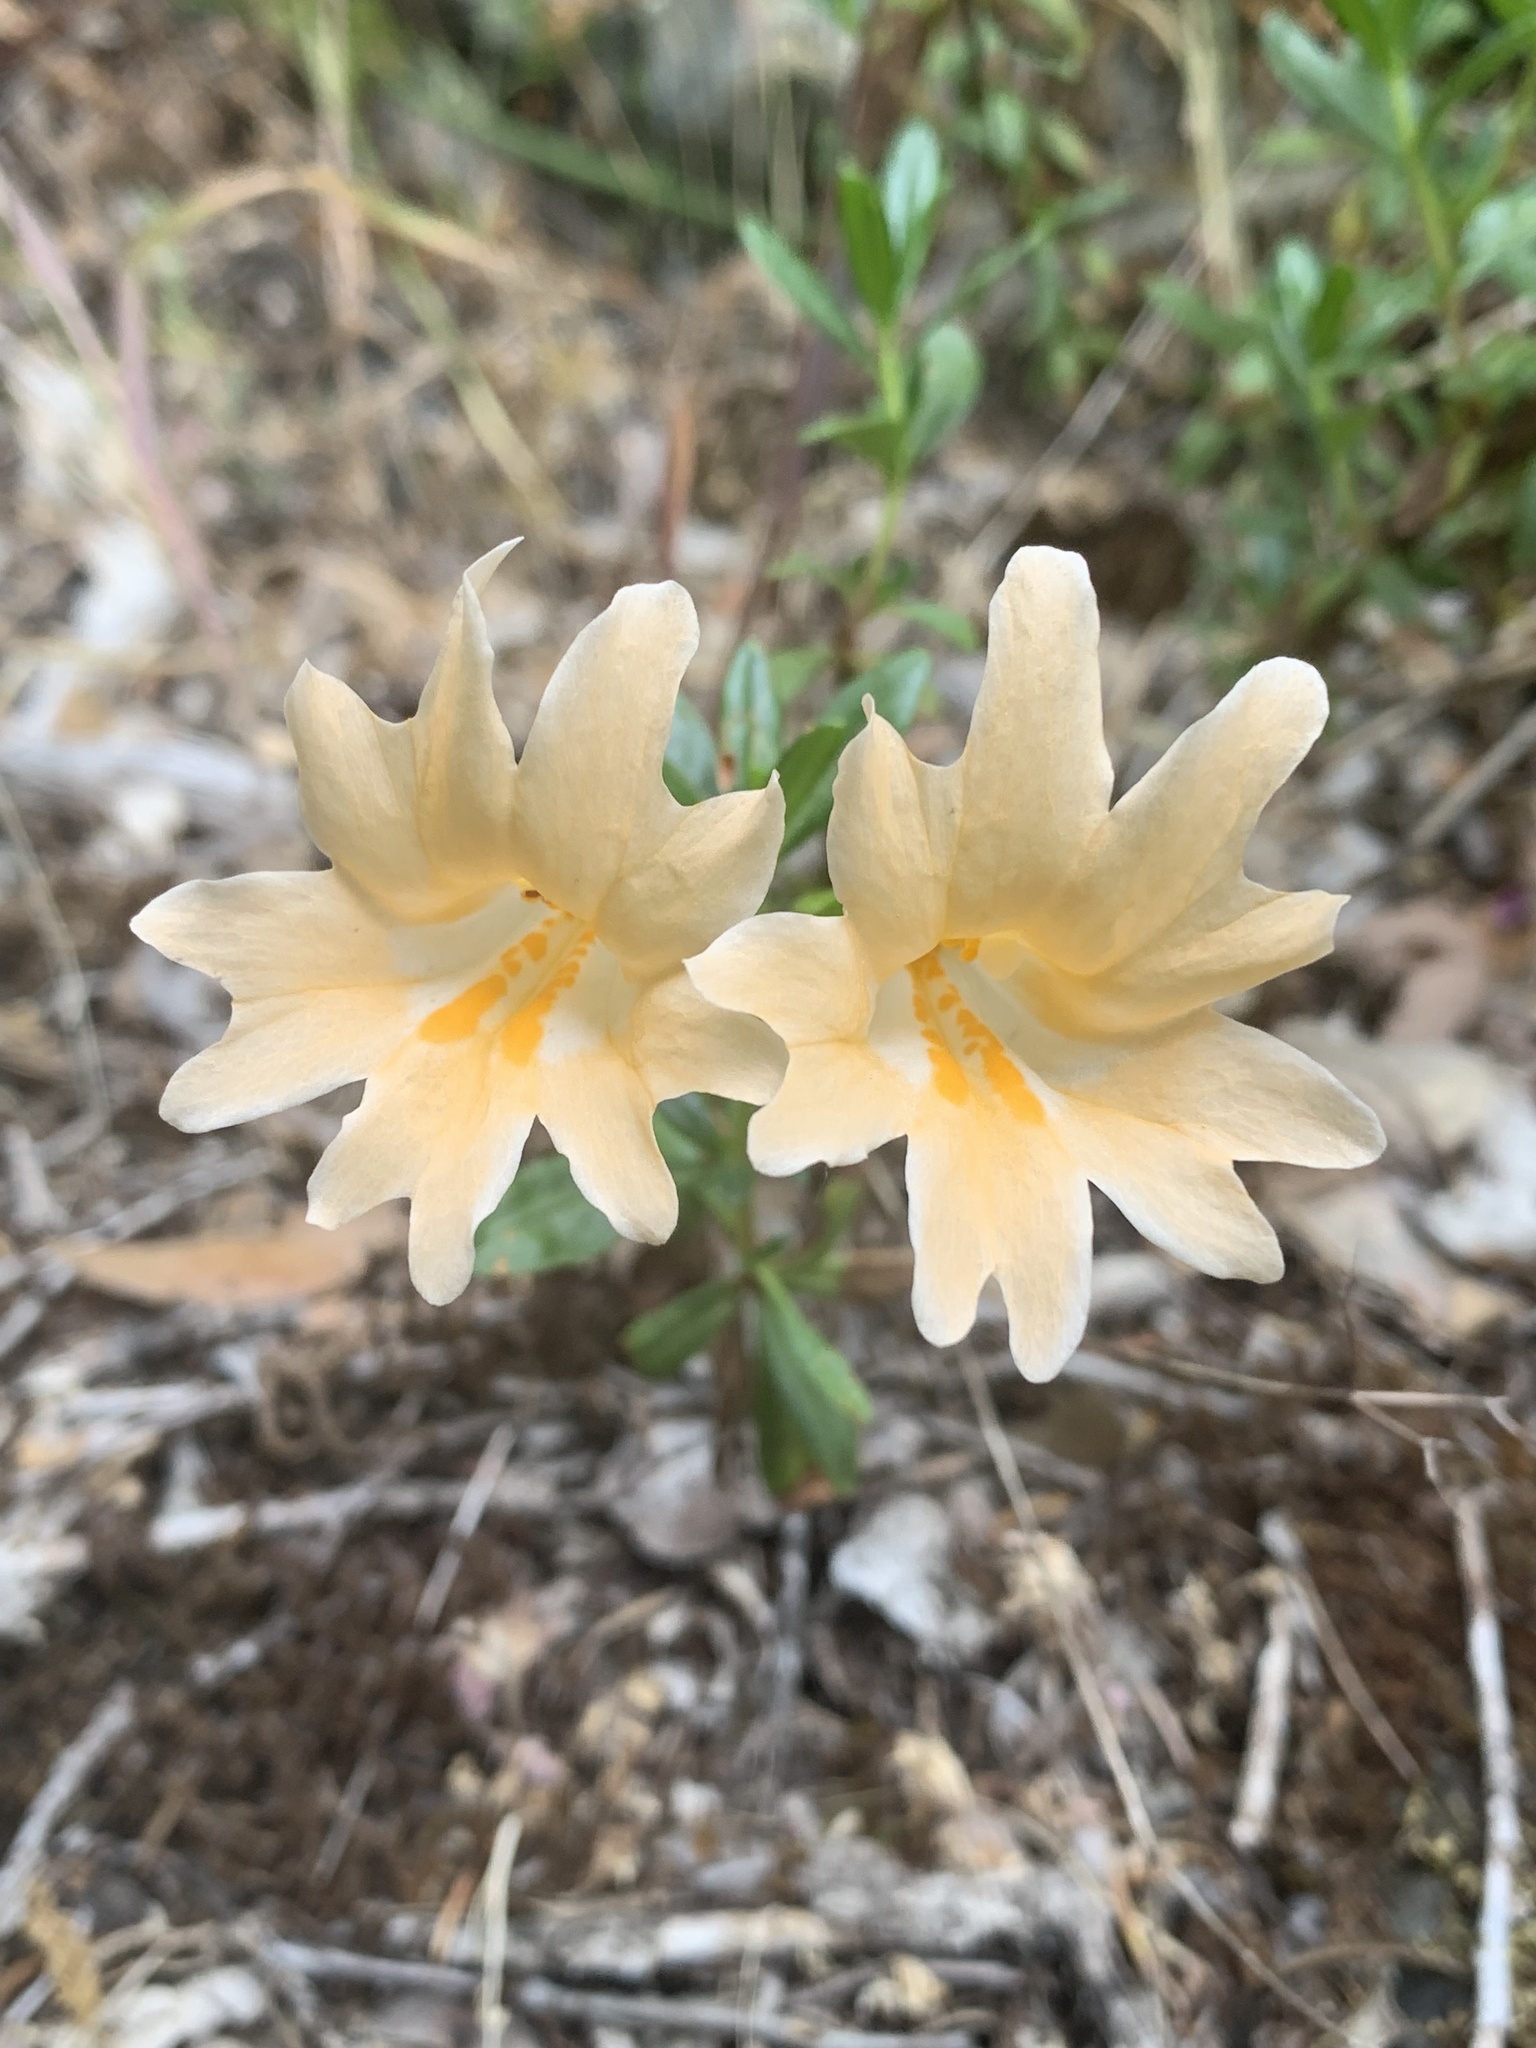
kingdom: Plantae
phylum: Tracheophyta
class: Magnoliopsida
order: Lamiales
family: Phrymaceae
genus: Diplacus
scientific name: Diplacus grandiflorus
